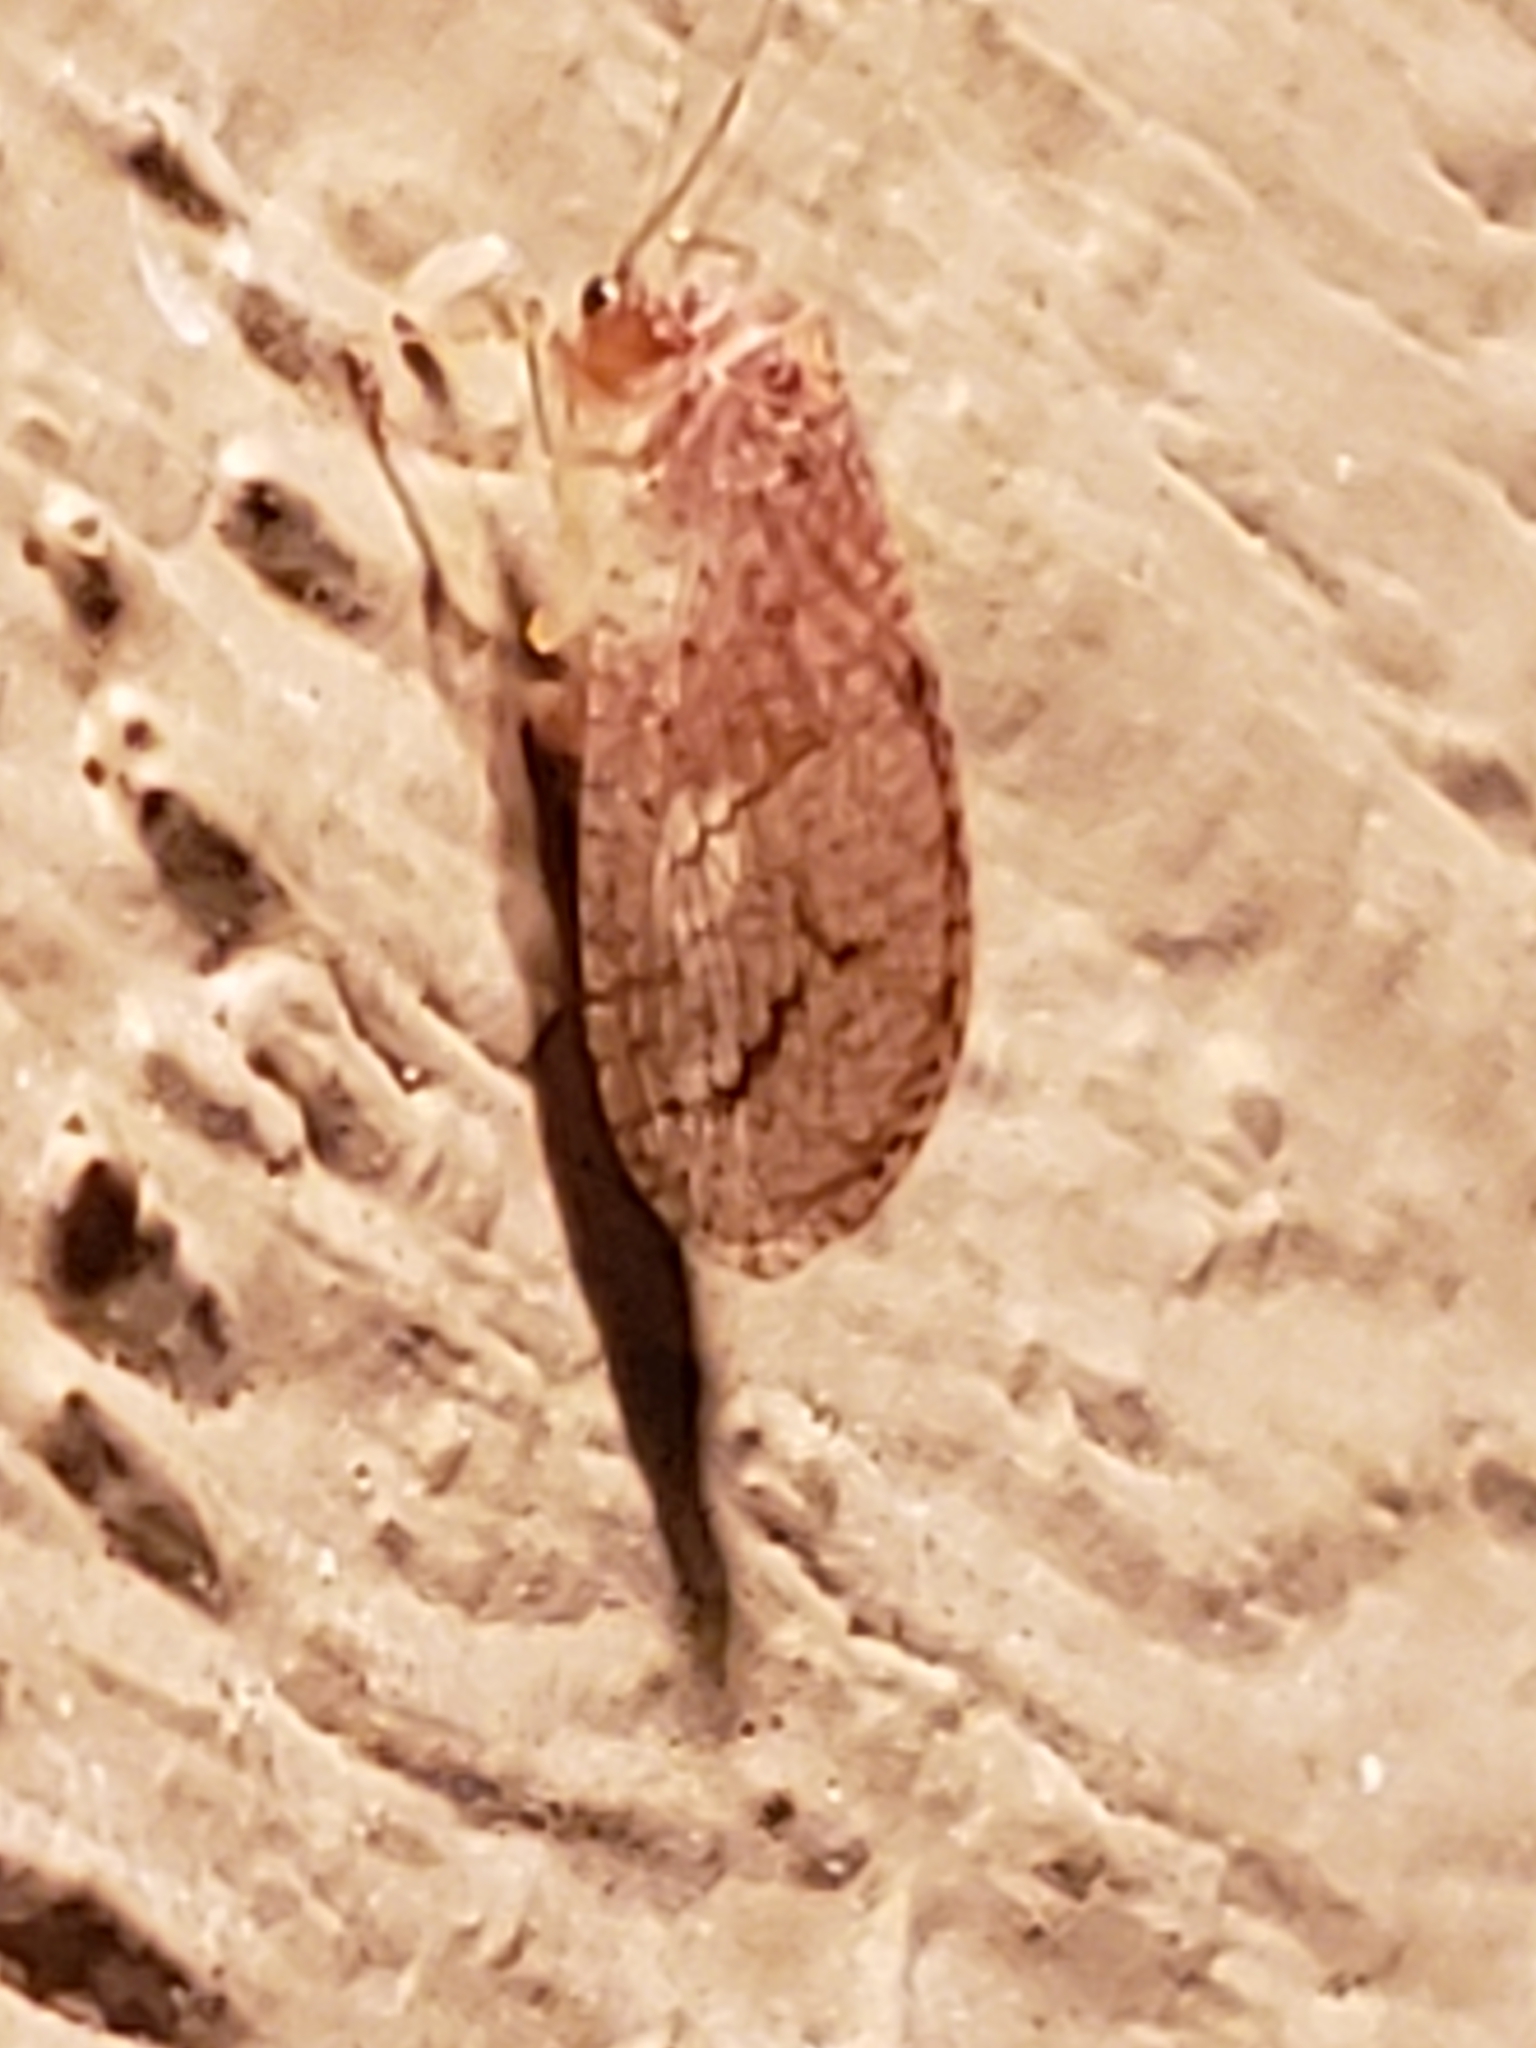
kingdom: Animalia
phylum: Arthropoda
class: Insecta
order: Neuroptera
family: Hemerobiidae
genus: Micromus
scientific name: Micromus posticus
